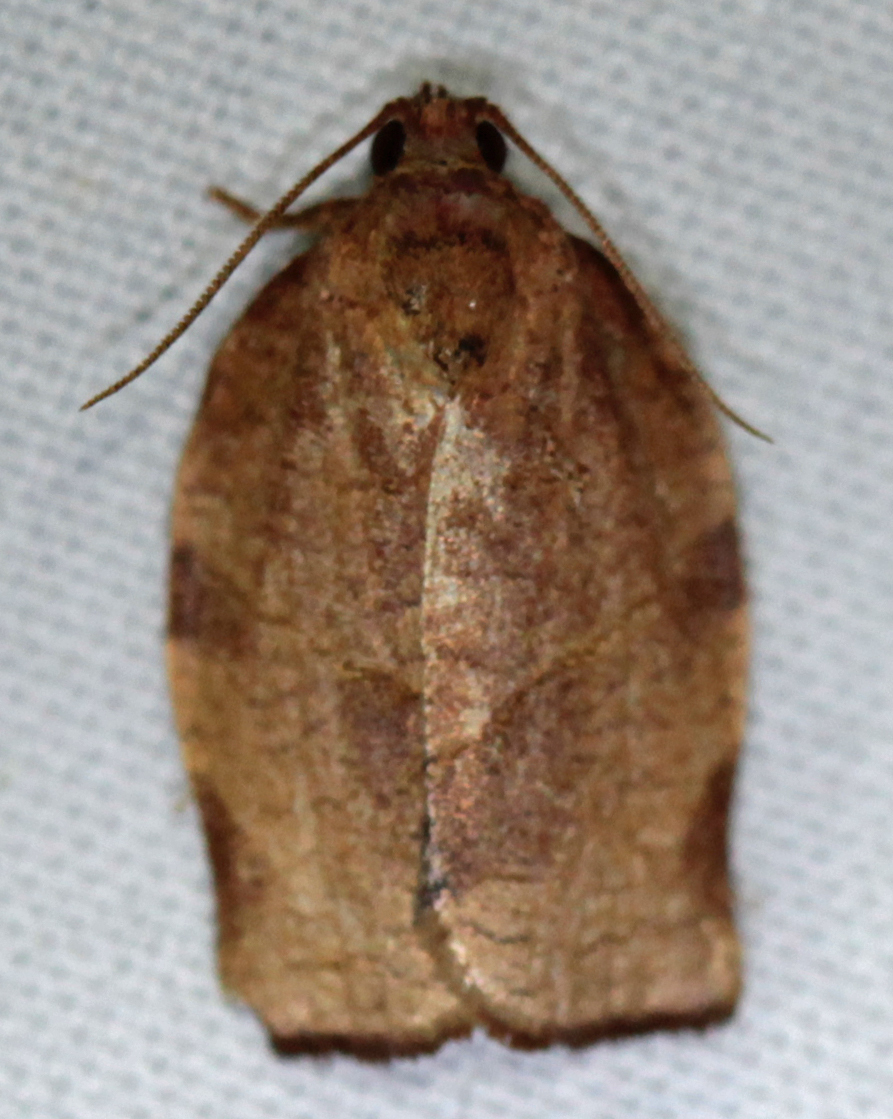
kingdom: Animalia
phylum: Arthropoda
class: Insecta
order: Lepidoptera
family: Tortricidae
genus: Choristoneura
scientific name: Choristoneura rosaceana
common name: Oblique-banded leafroller moth
